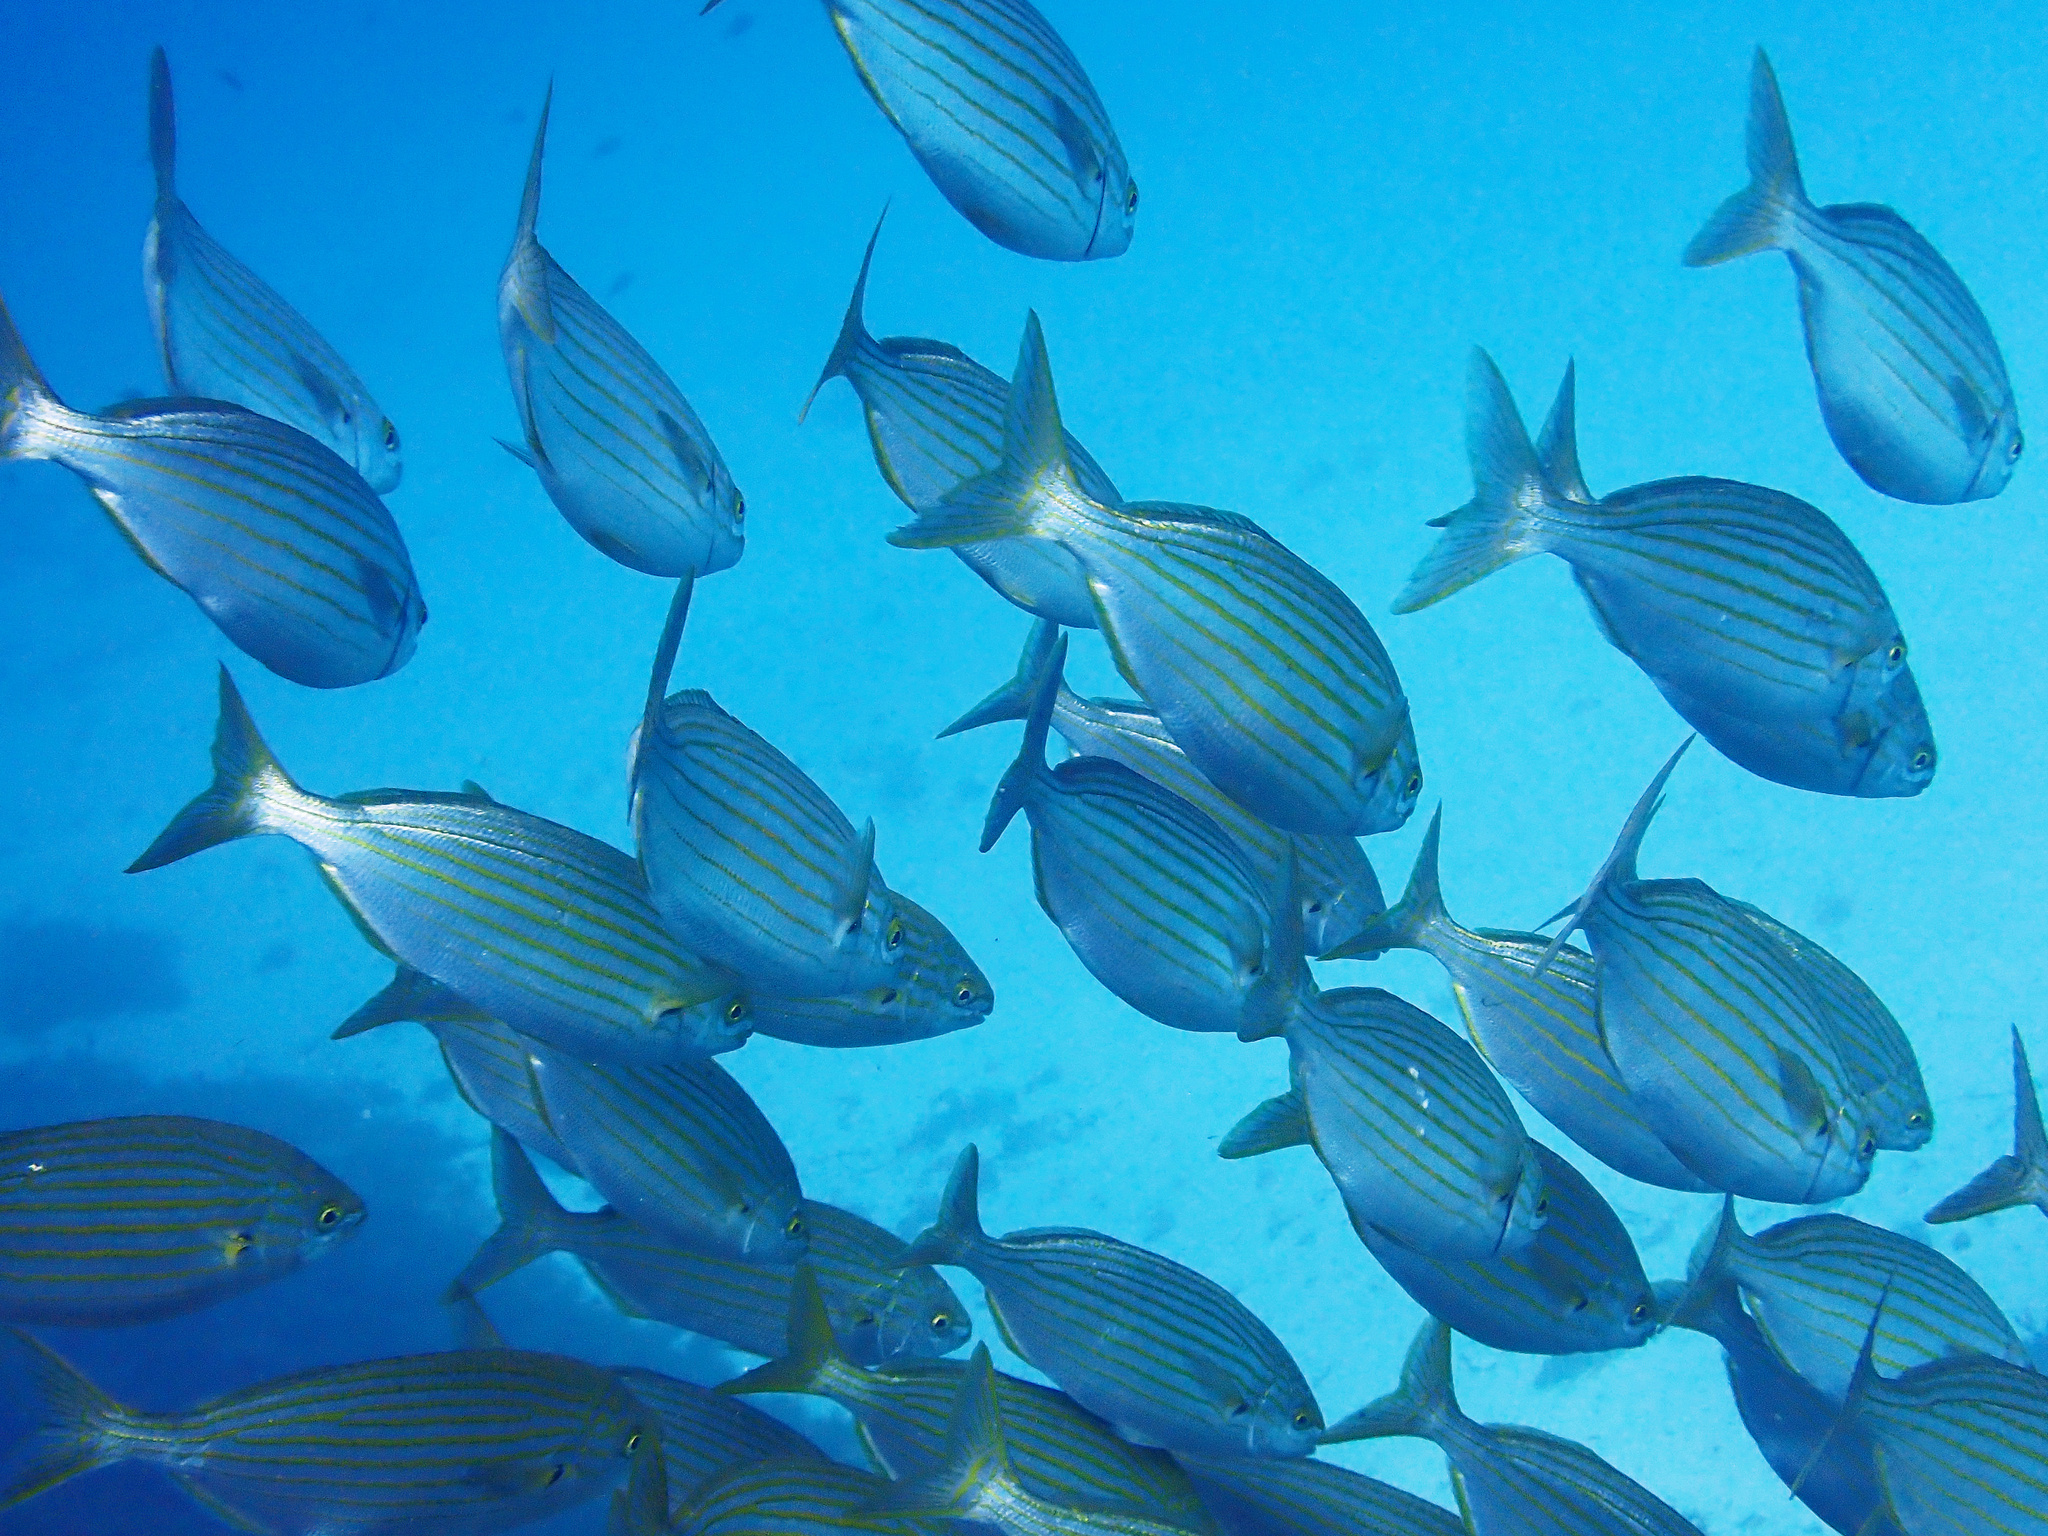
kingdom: Animalia
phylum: Chordata
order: Perciformes
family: Sparidae
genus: Sarpa
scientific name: Sarpa salpa
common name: Salema
